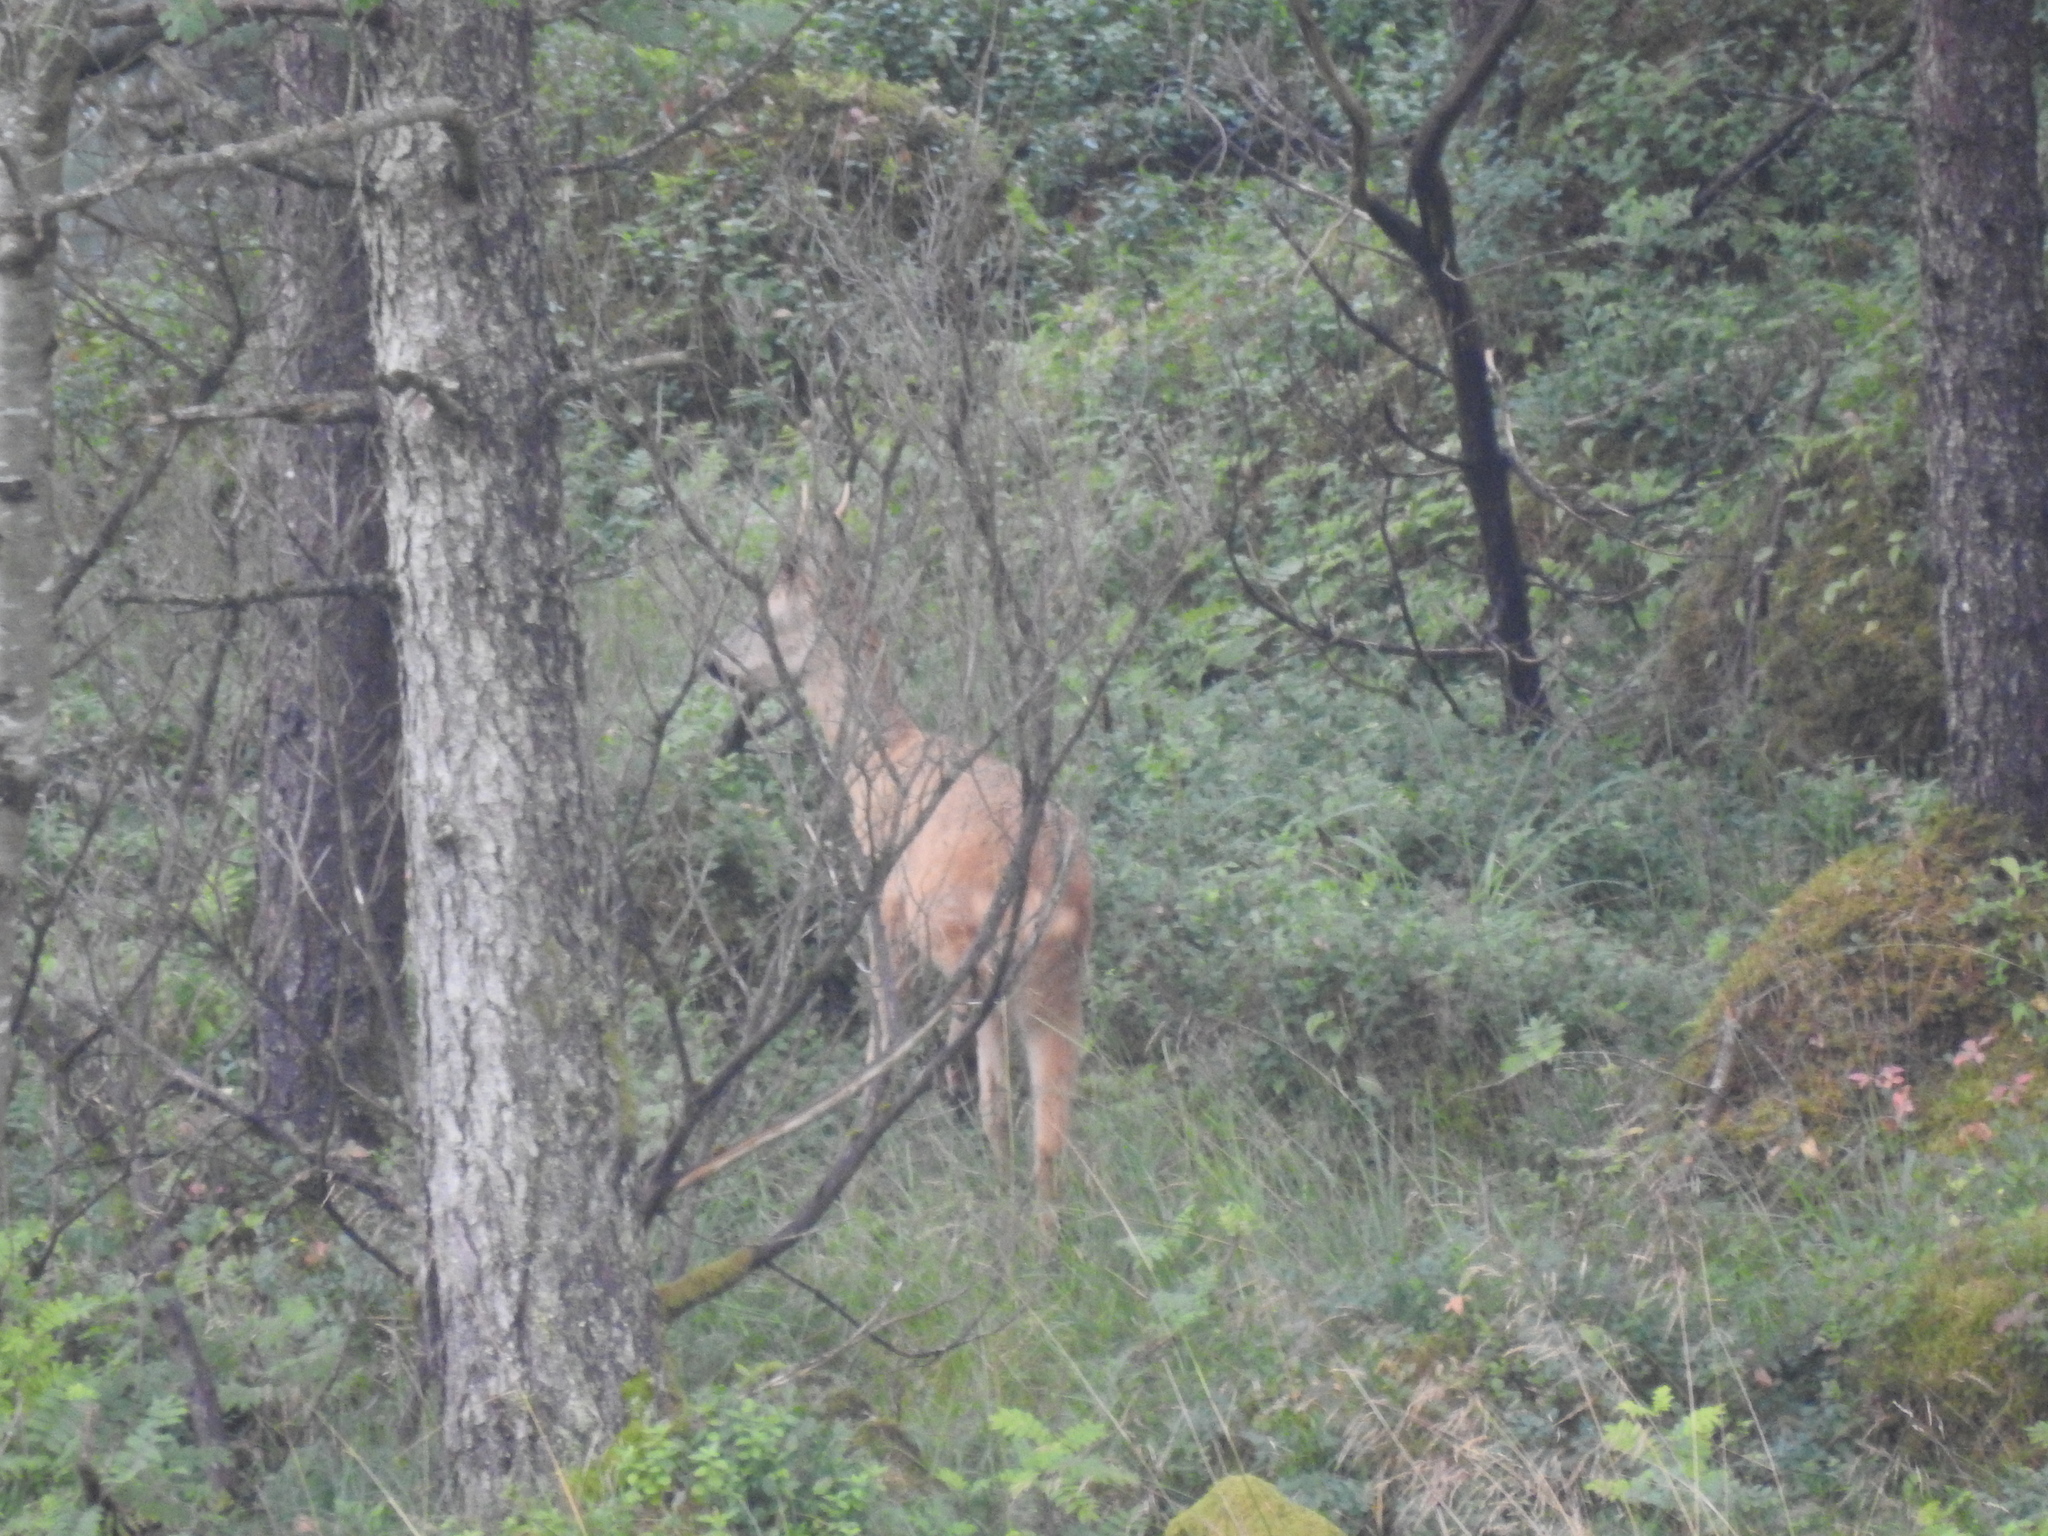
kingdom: Animalia
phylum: Chordata
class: Mammalia
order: Artiodactyla
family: Cervidae
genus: Capreolus
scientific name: Capreolus capreolus
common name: Western roe deer
